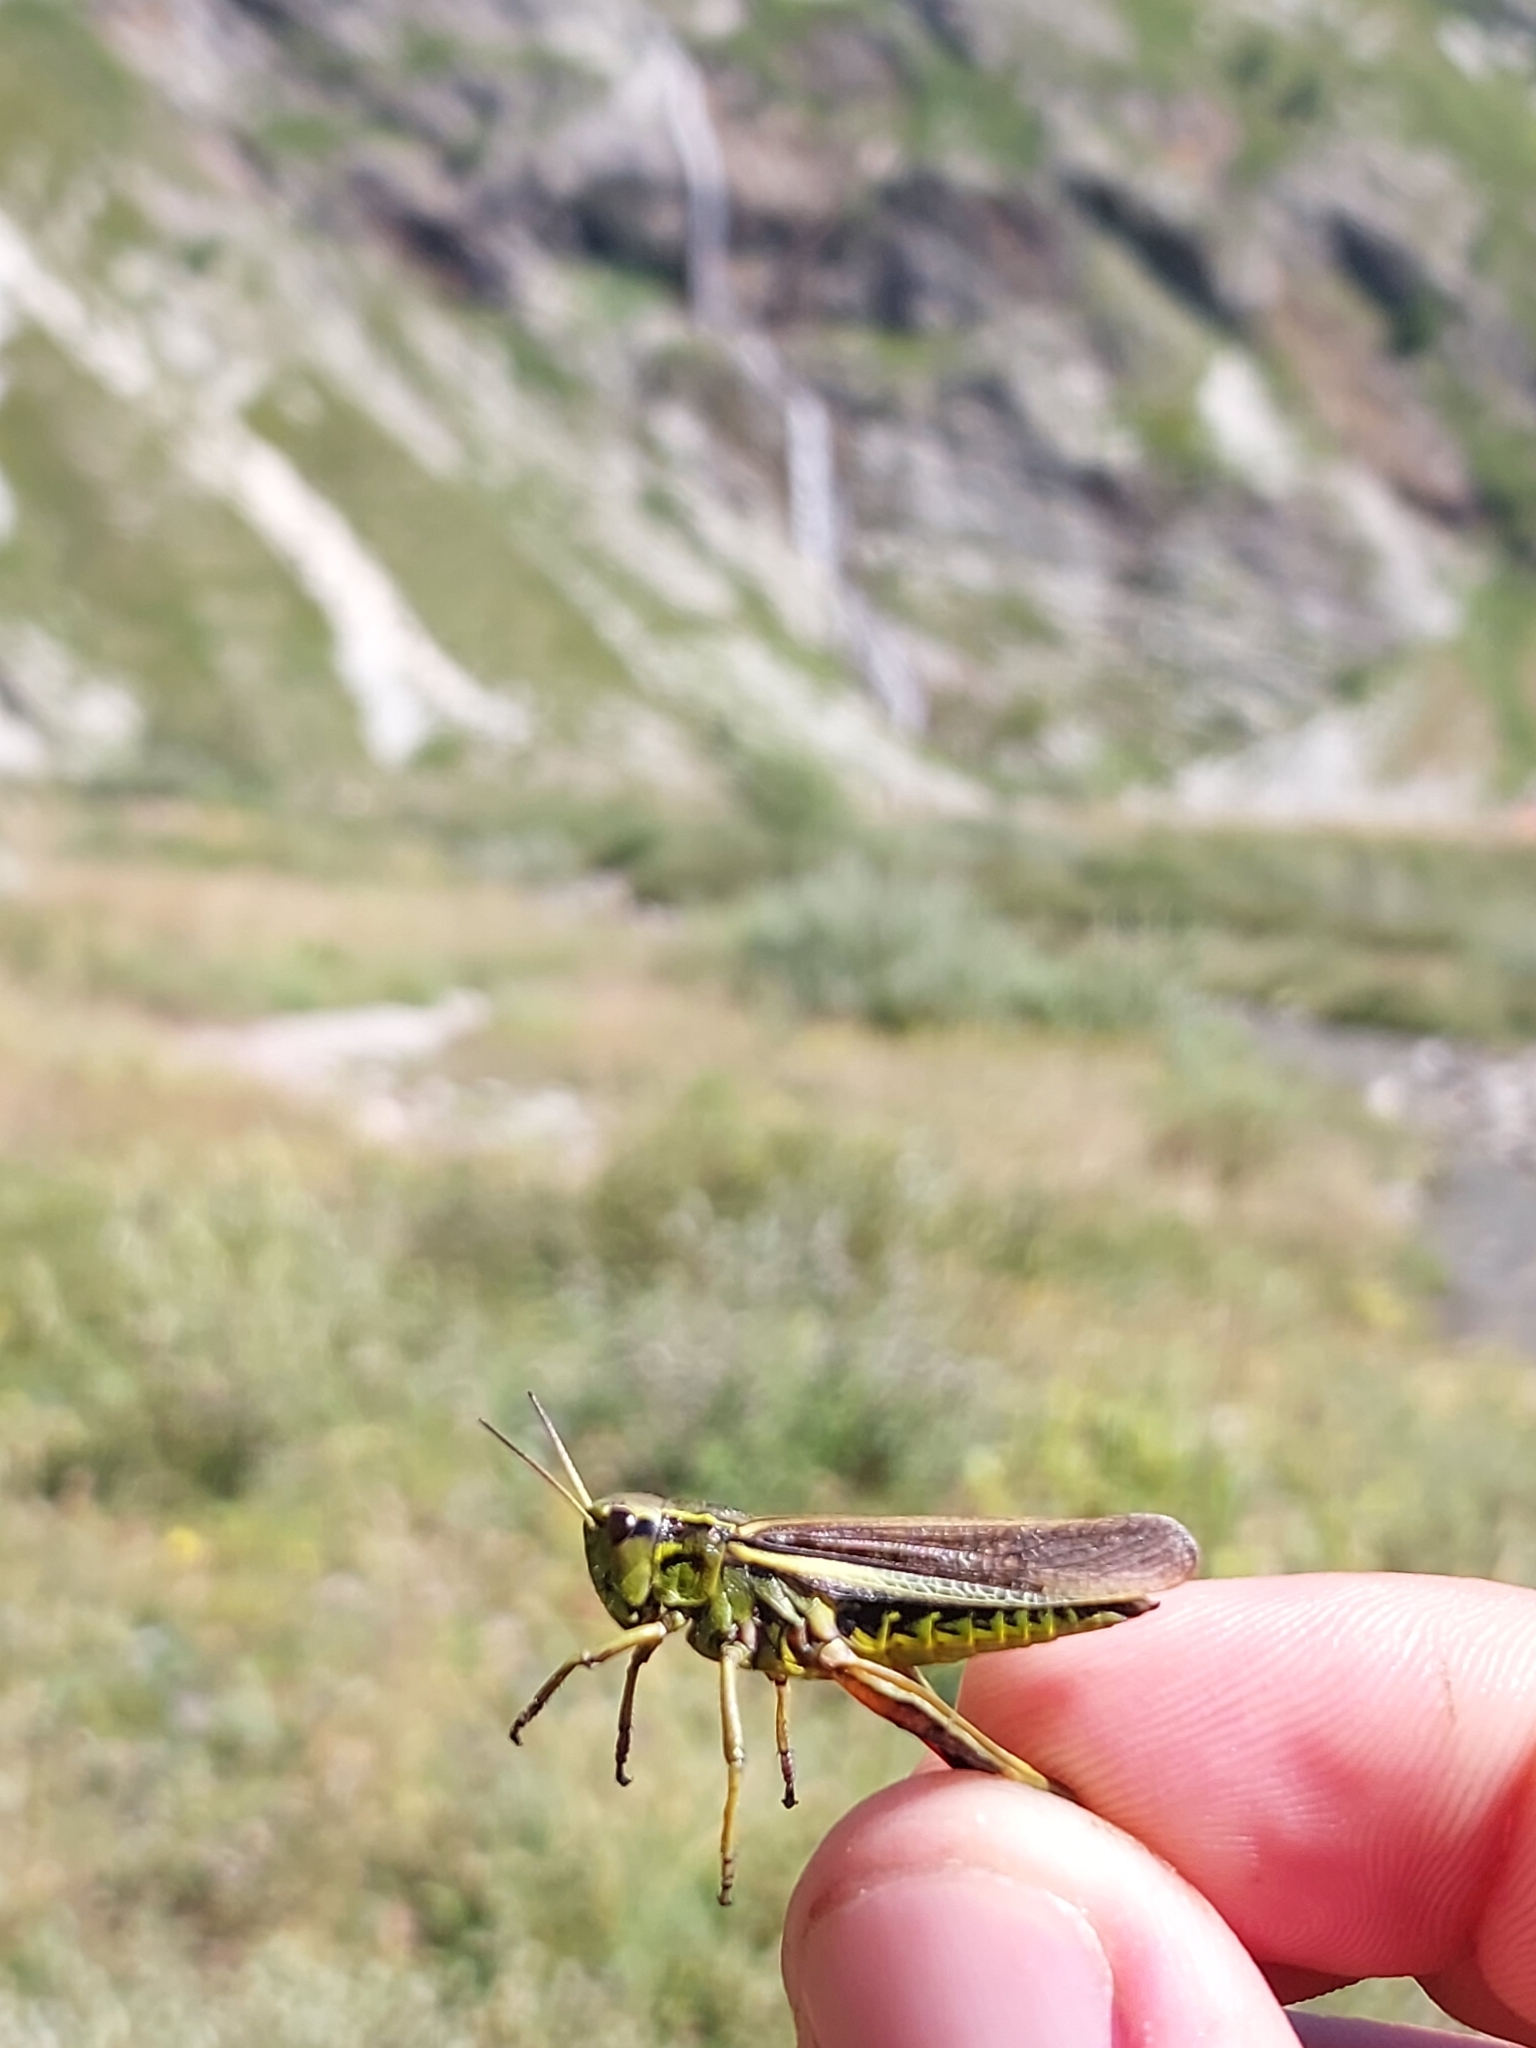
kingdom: Animalia
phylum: Arthropoda
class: Insecta
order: Orthoptera
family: Acrididae
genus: Stethophyma
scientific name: Stethophyma grossum
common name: Large marsh grasshopper
